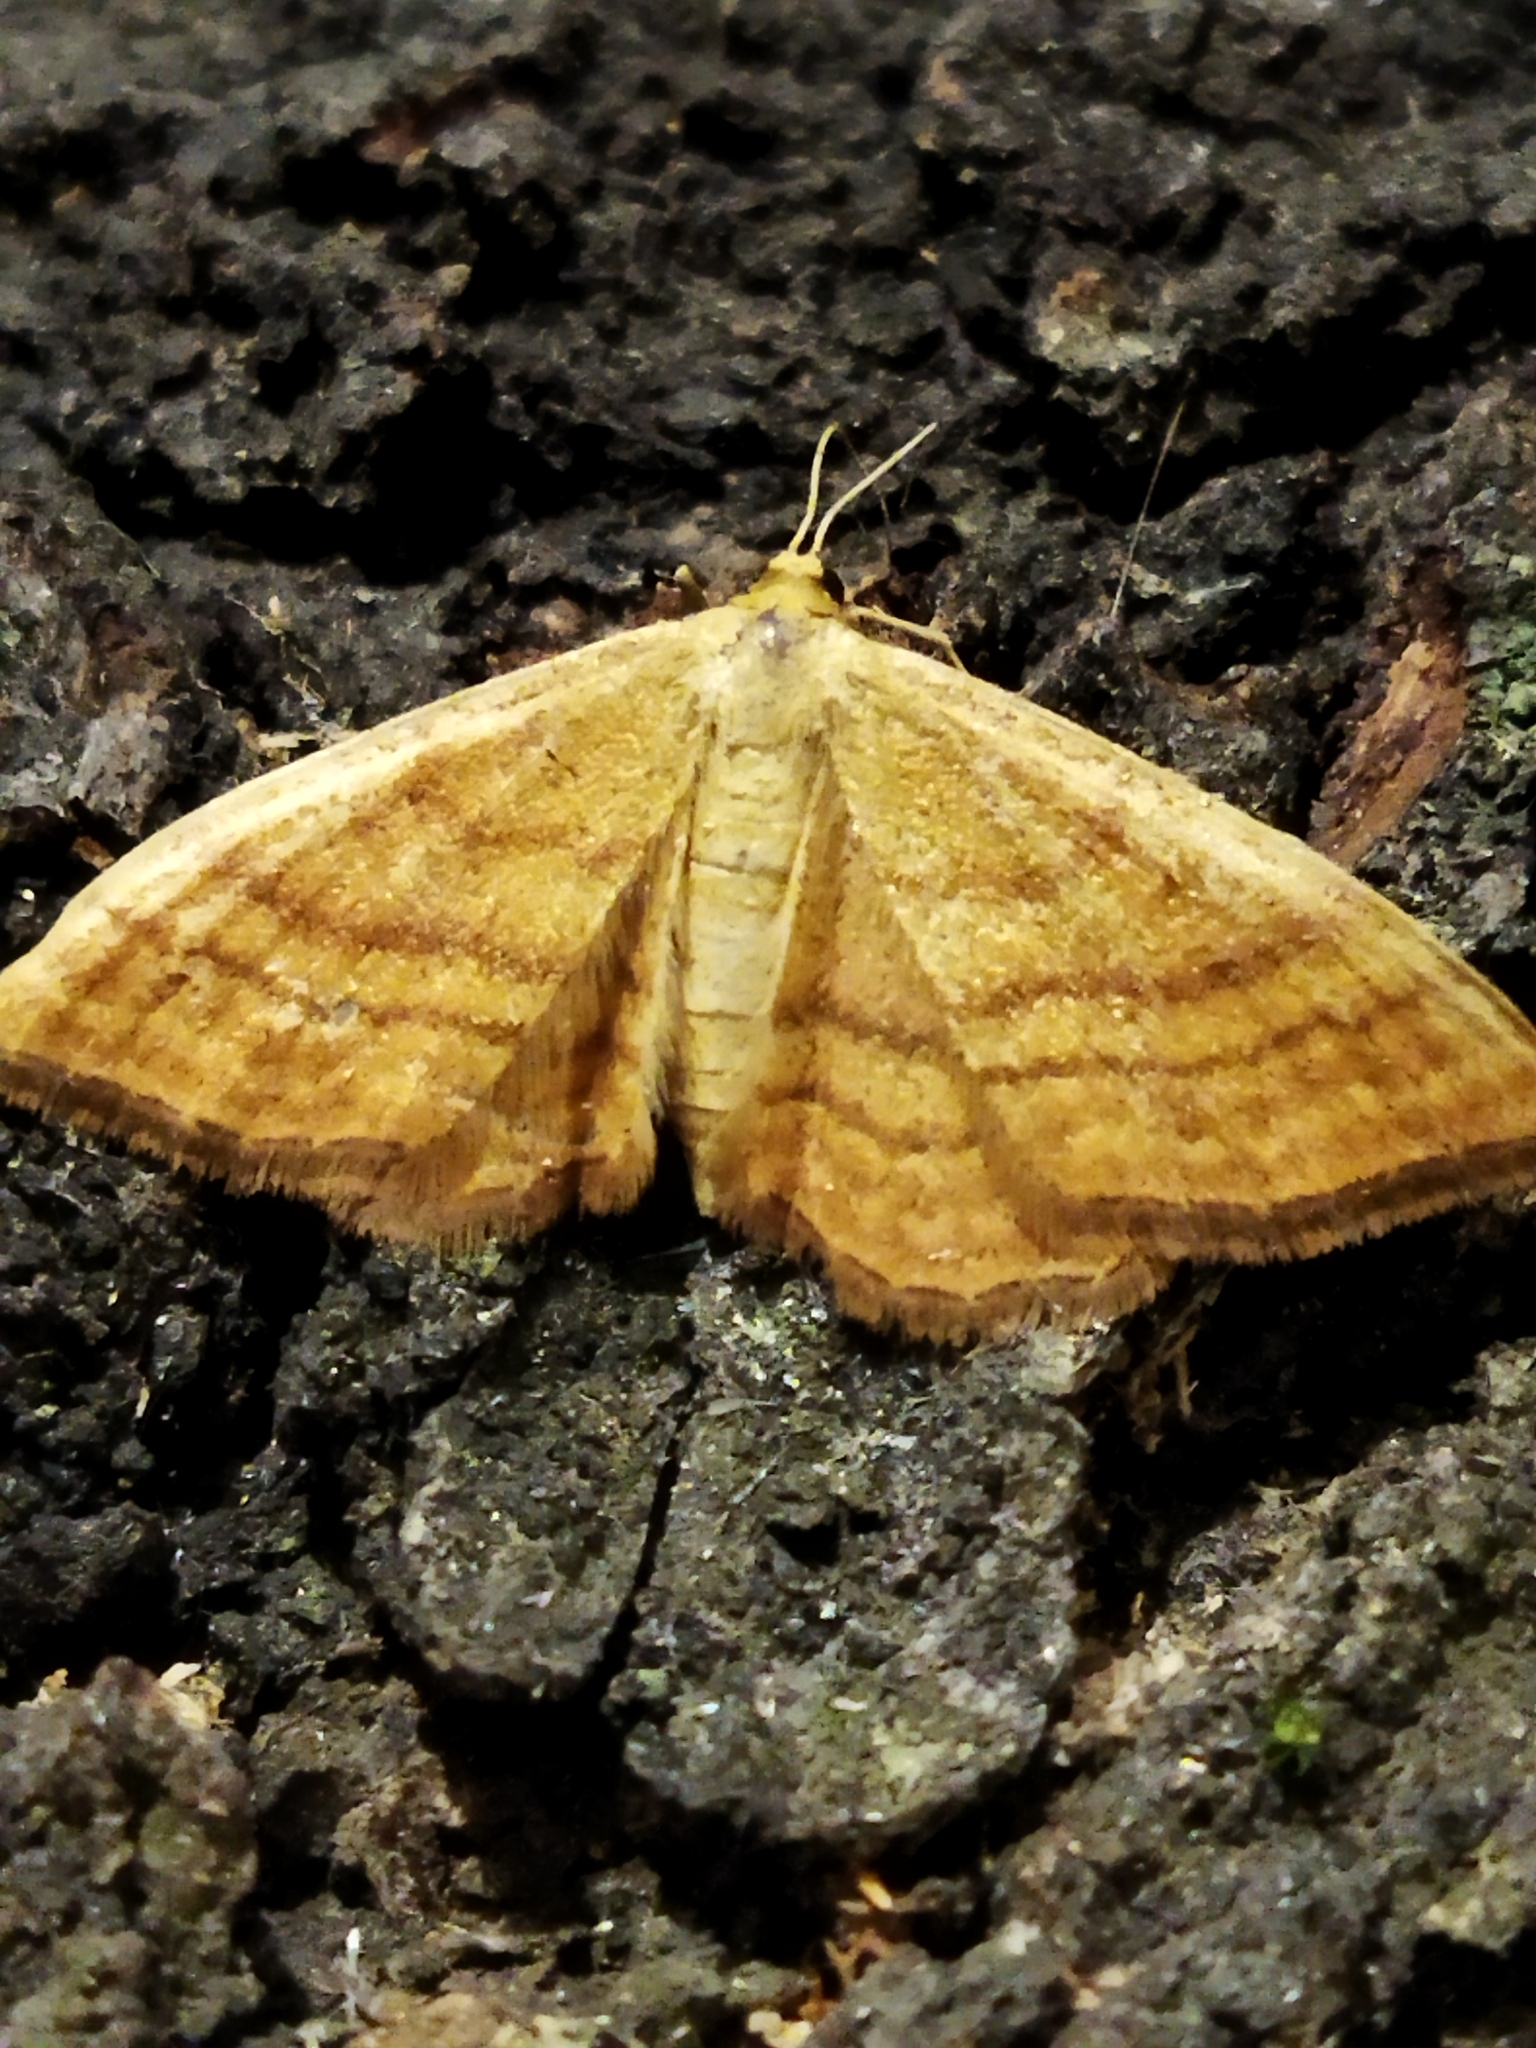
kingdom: Animalia
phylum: Arthropoda
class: Insecta
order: Lepidoptera
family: Geometridae
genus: Idaea
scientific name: Idaea ochrata
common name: Bright wave
